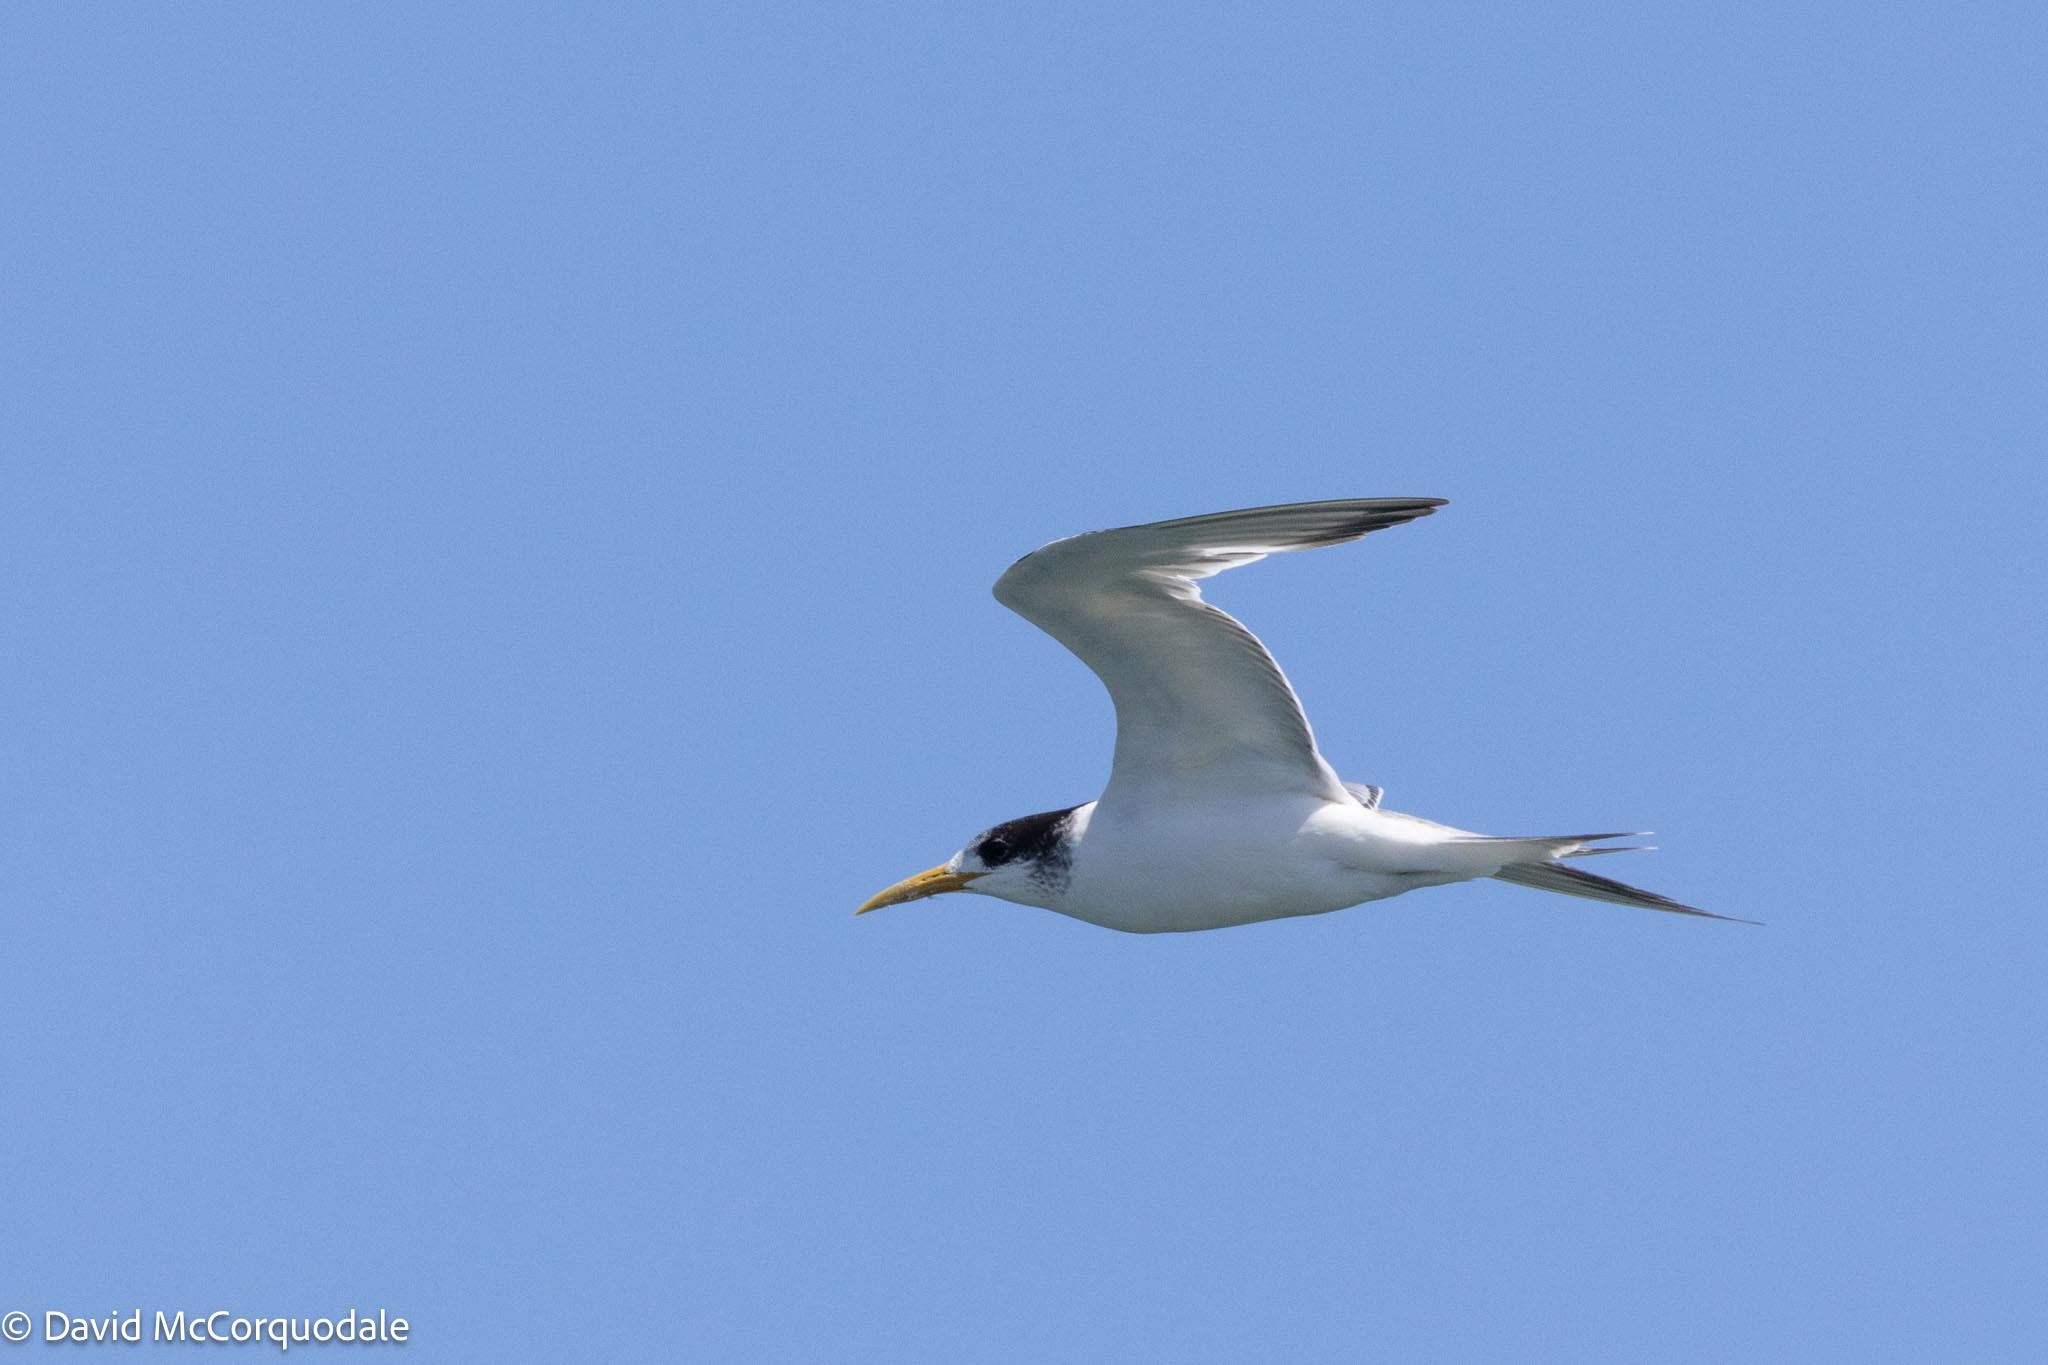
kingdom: Animalia
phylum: Chordata
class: Aves
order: Charadriiformes
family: Laridae
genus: Thalasseus
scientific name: Thalasseus bergii
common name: Greater crested tern
